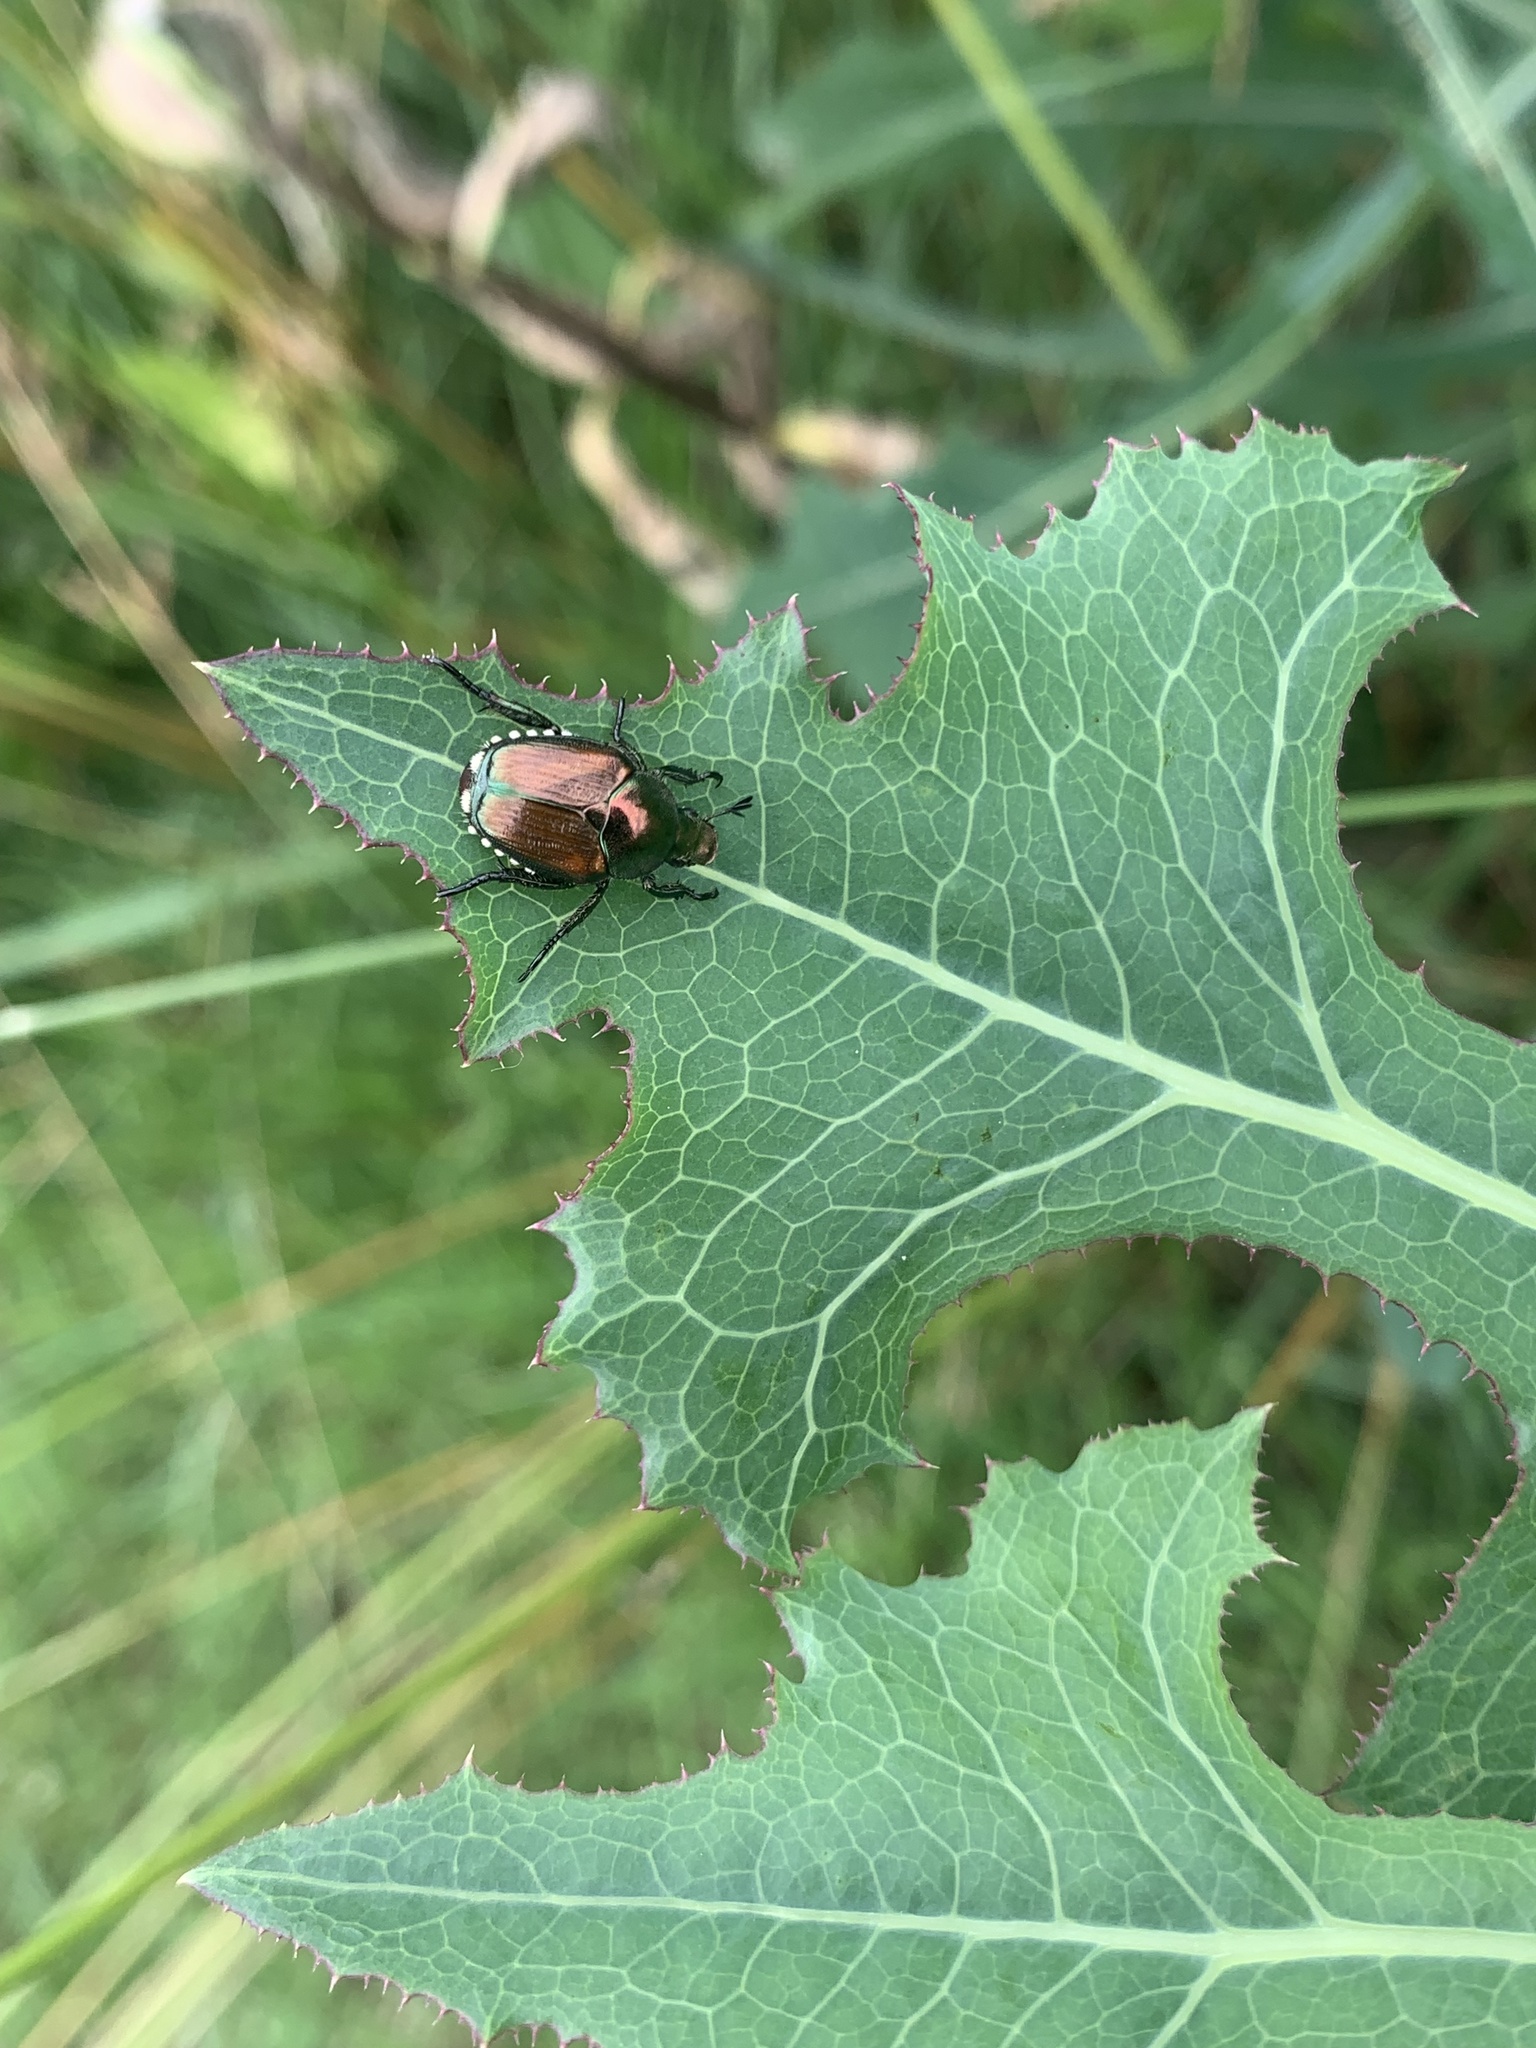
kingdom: Animalia
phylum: Arthropoda
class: Insecta
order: Coleoptera
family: Scarabaeidae
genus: Popillia
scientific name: Popillia japonica
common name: Japanese beetle
